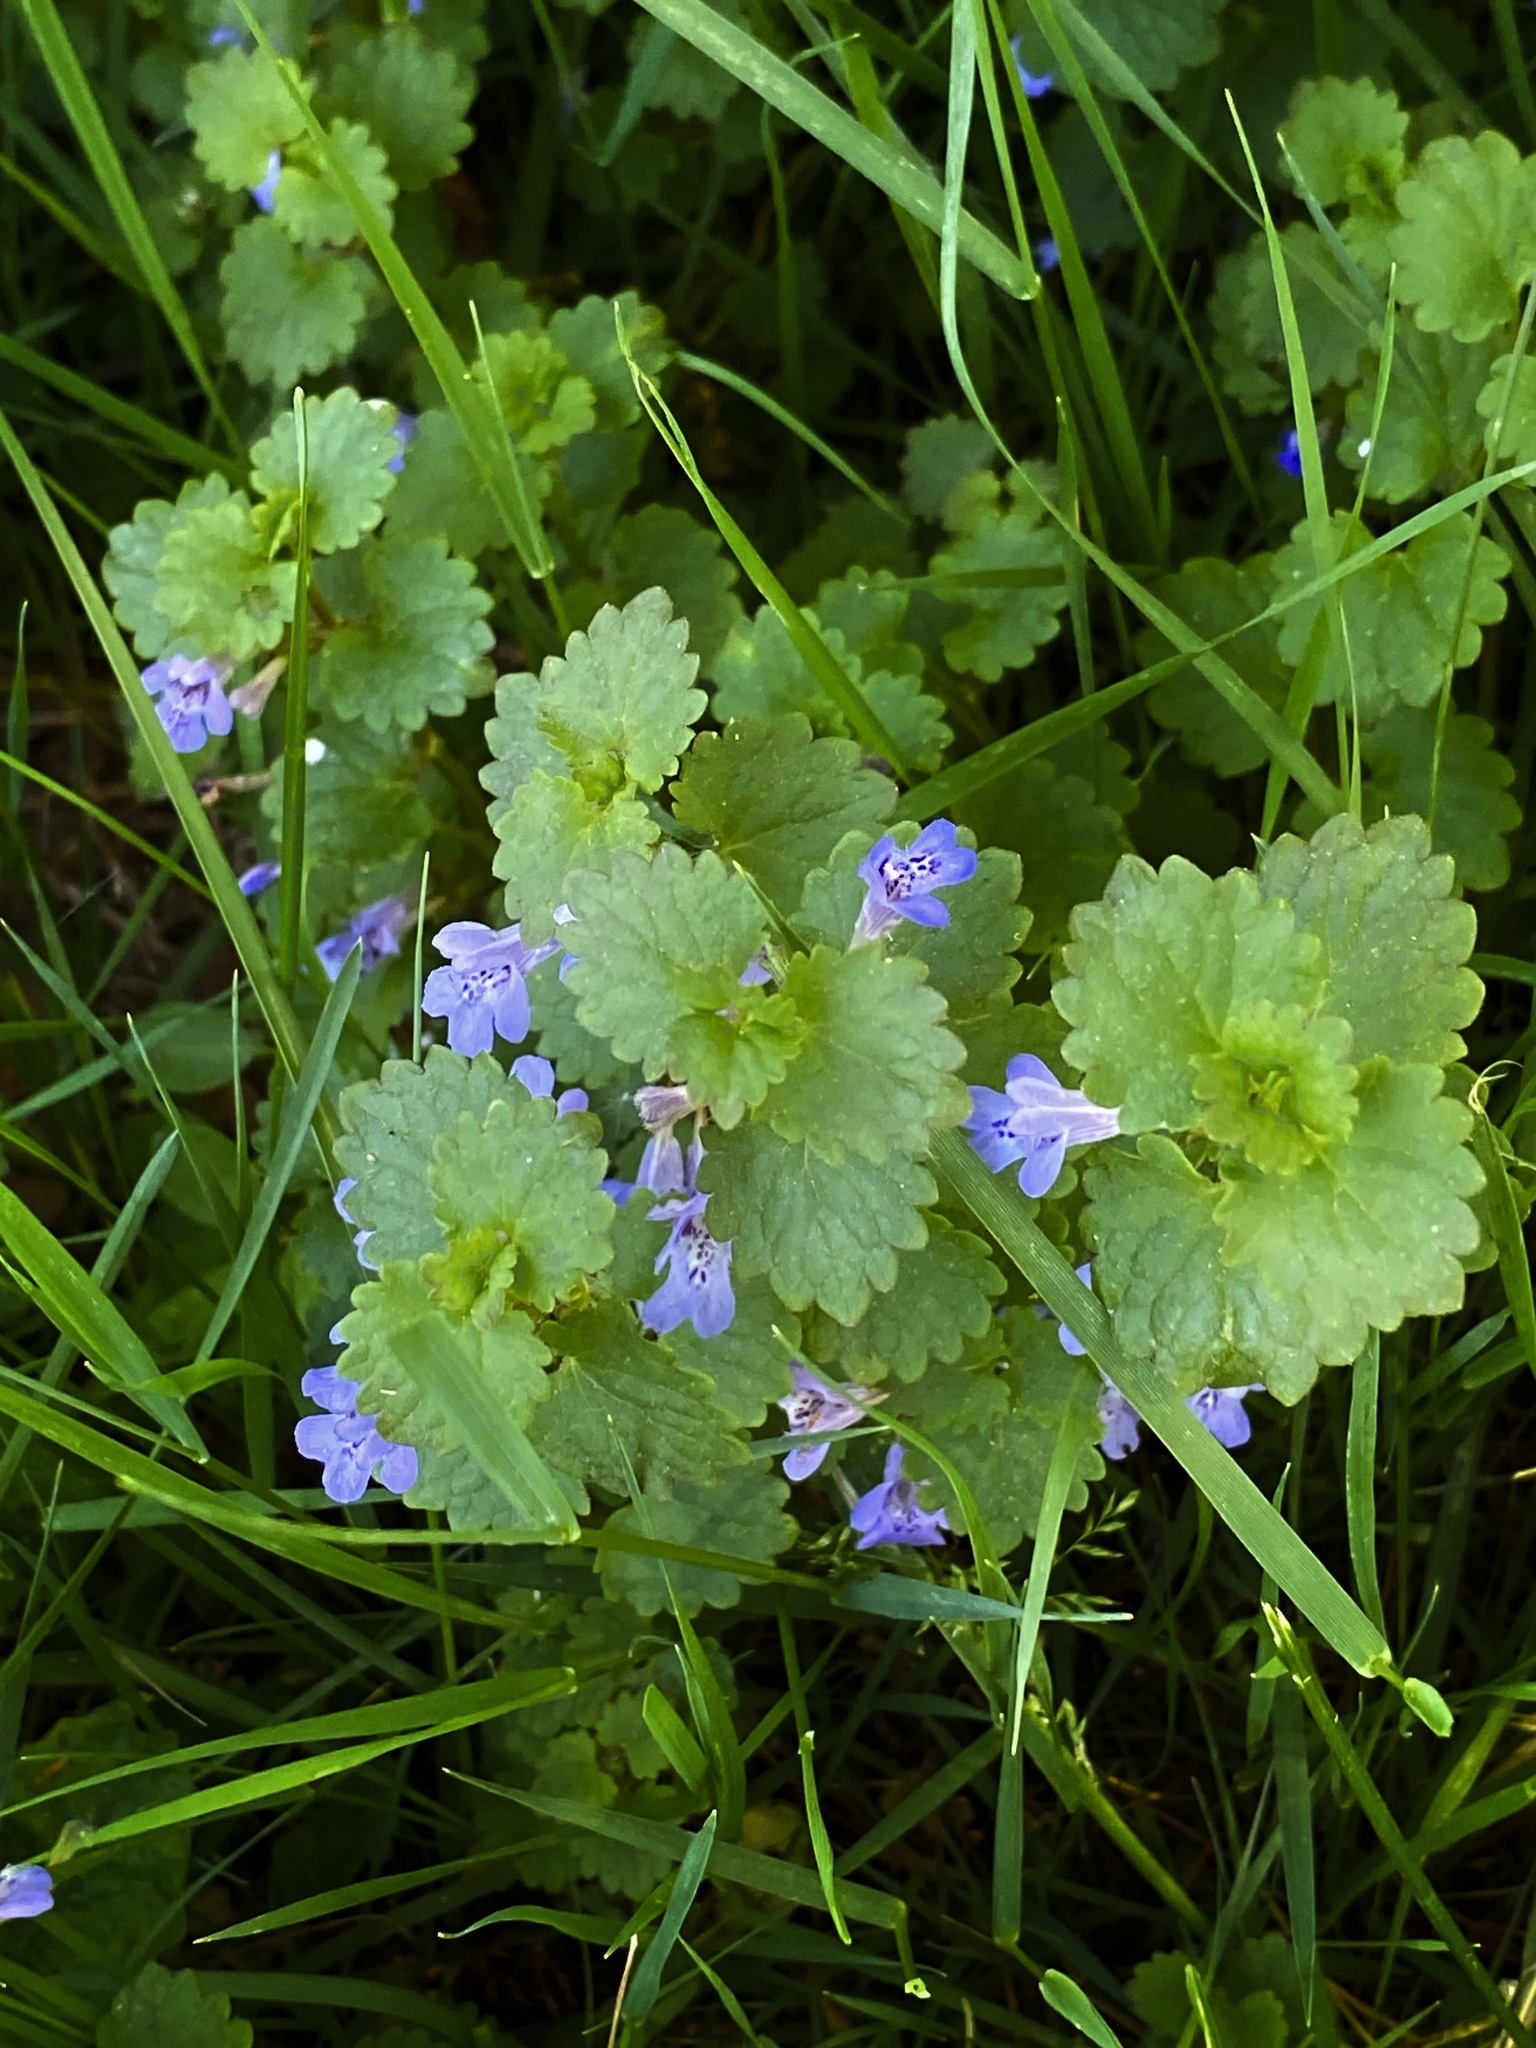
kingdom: Plantae
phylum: Tracheophyta
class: Magnoliopsida
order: Lamiales
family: Lamiaceae
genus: Glechoma
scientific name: Glechoma hederacea
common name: Ground ivy
